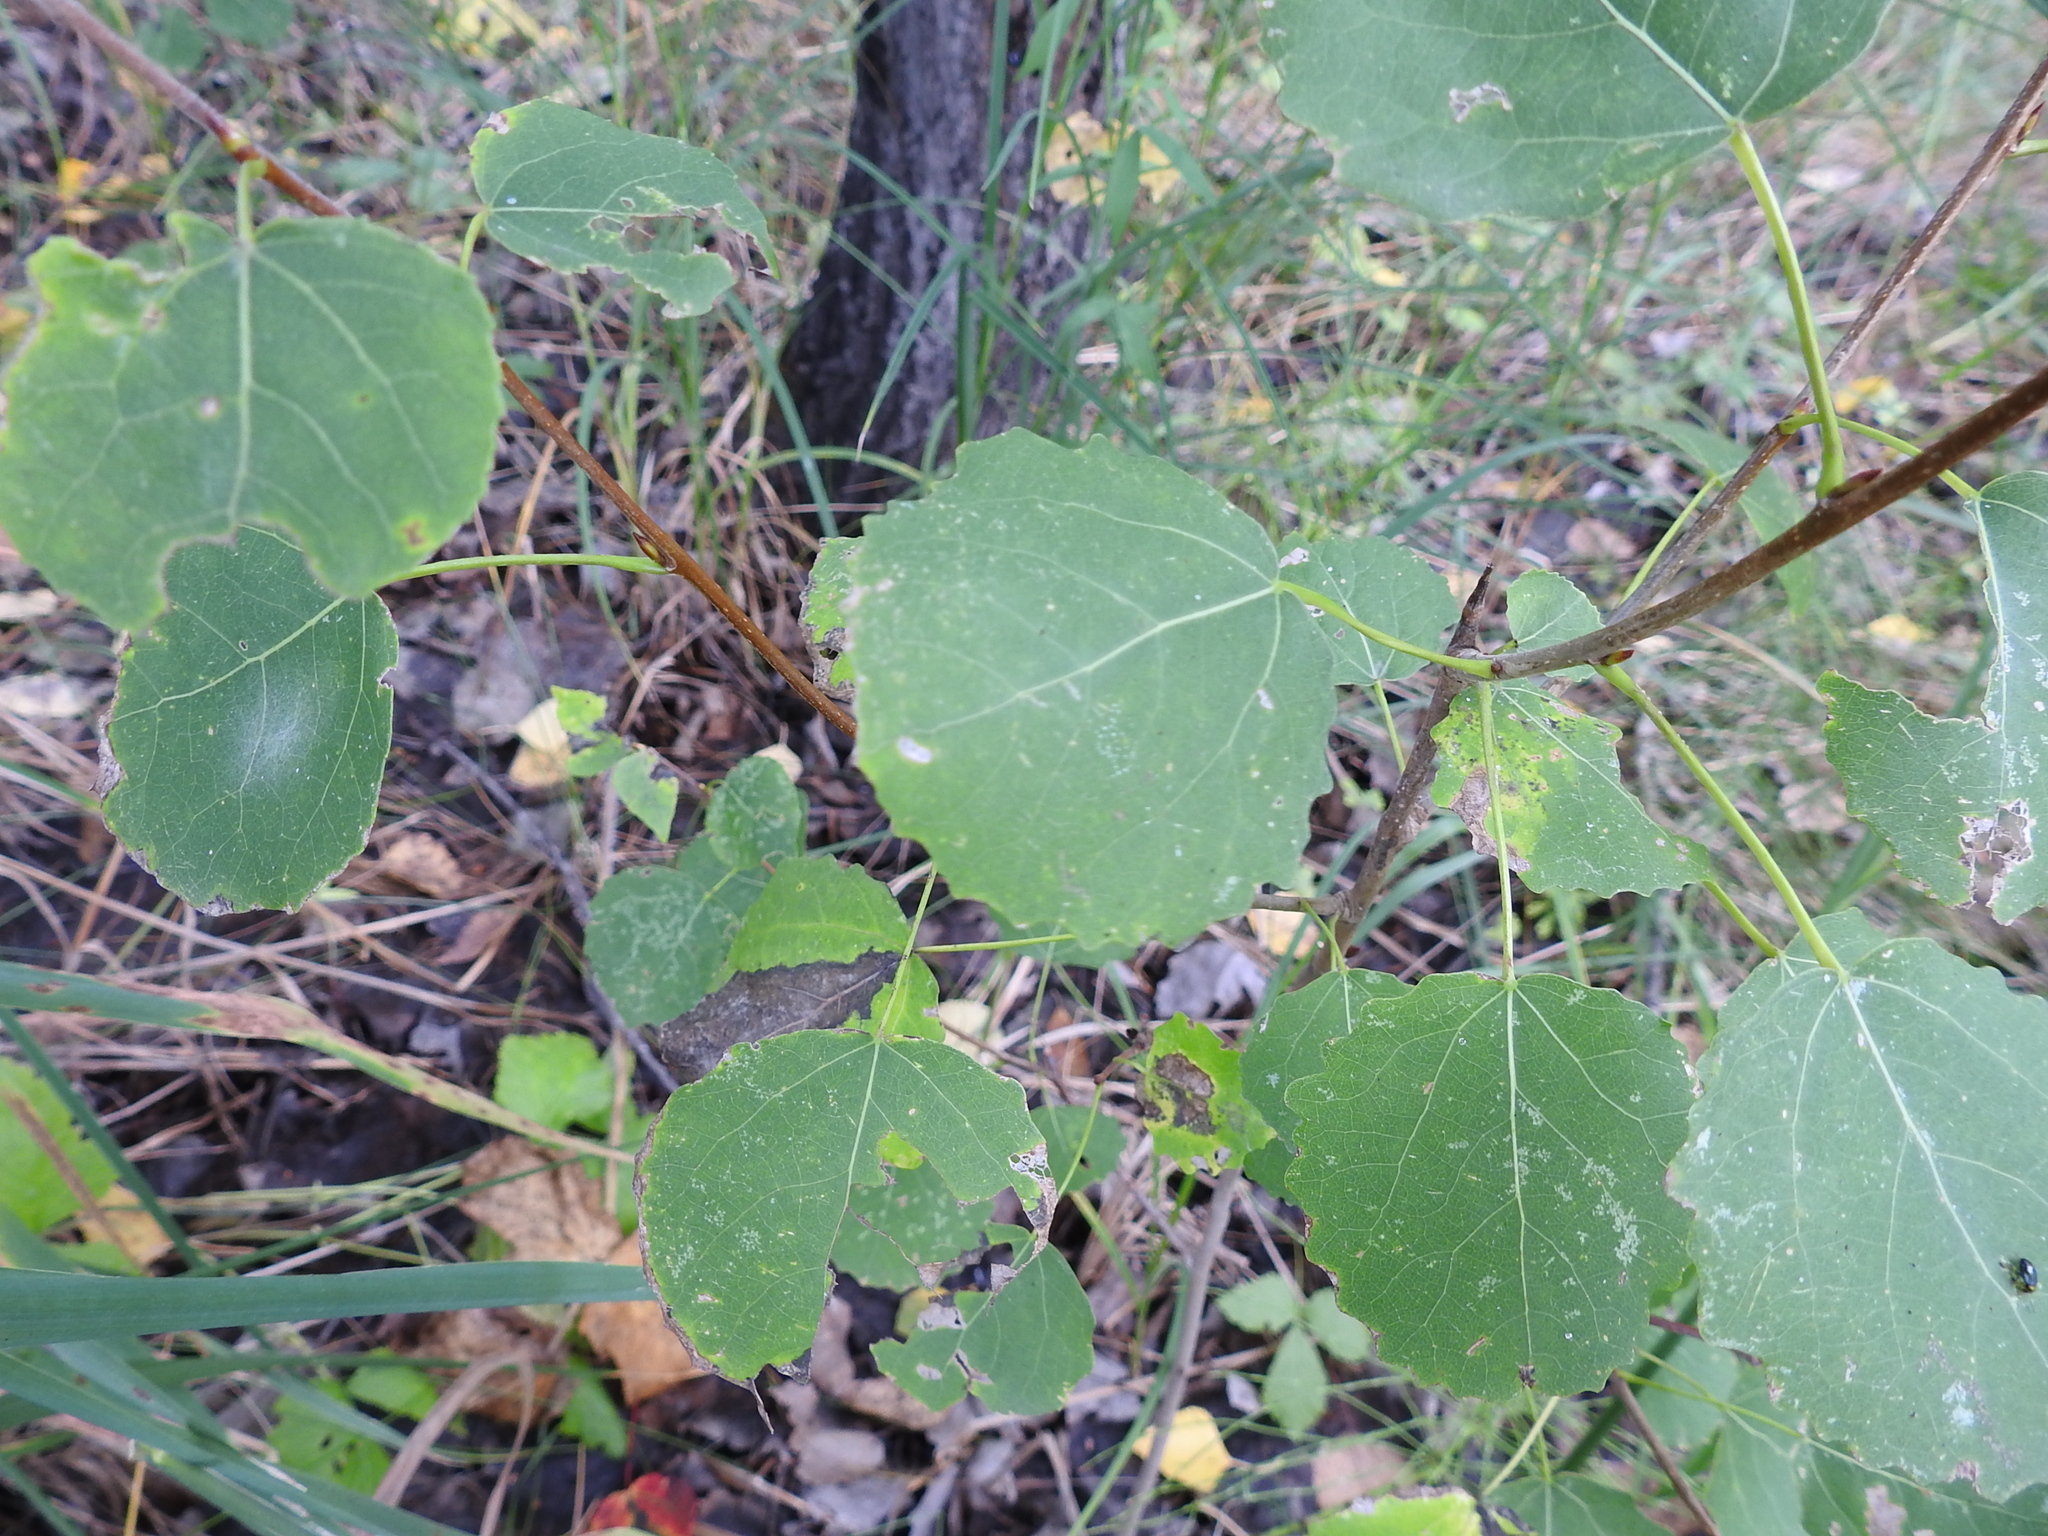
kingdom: Plantae
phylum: Tracheophyta
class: Magnoliopsida
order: Malpighiales
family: Salicaceae
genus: Populus
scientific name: Populus tremula
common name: European aspen
